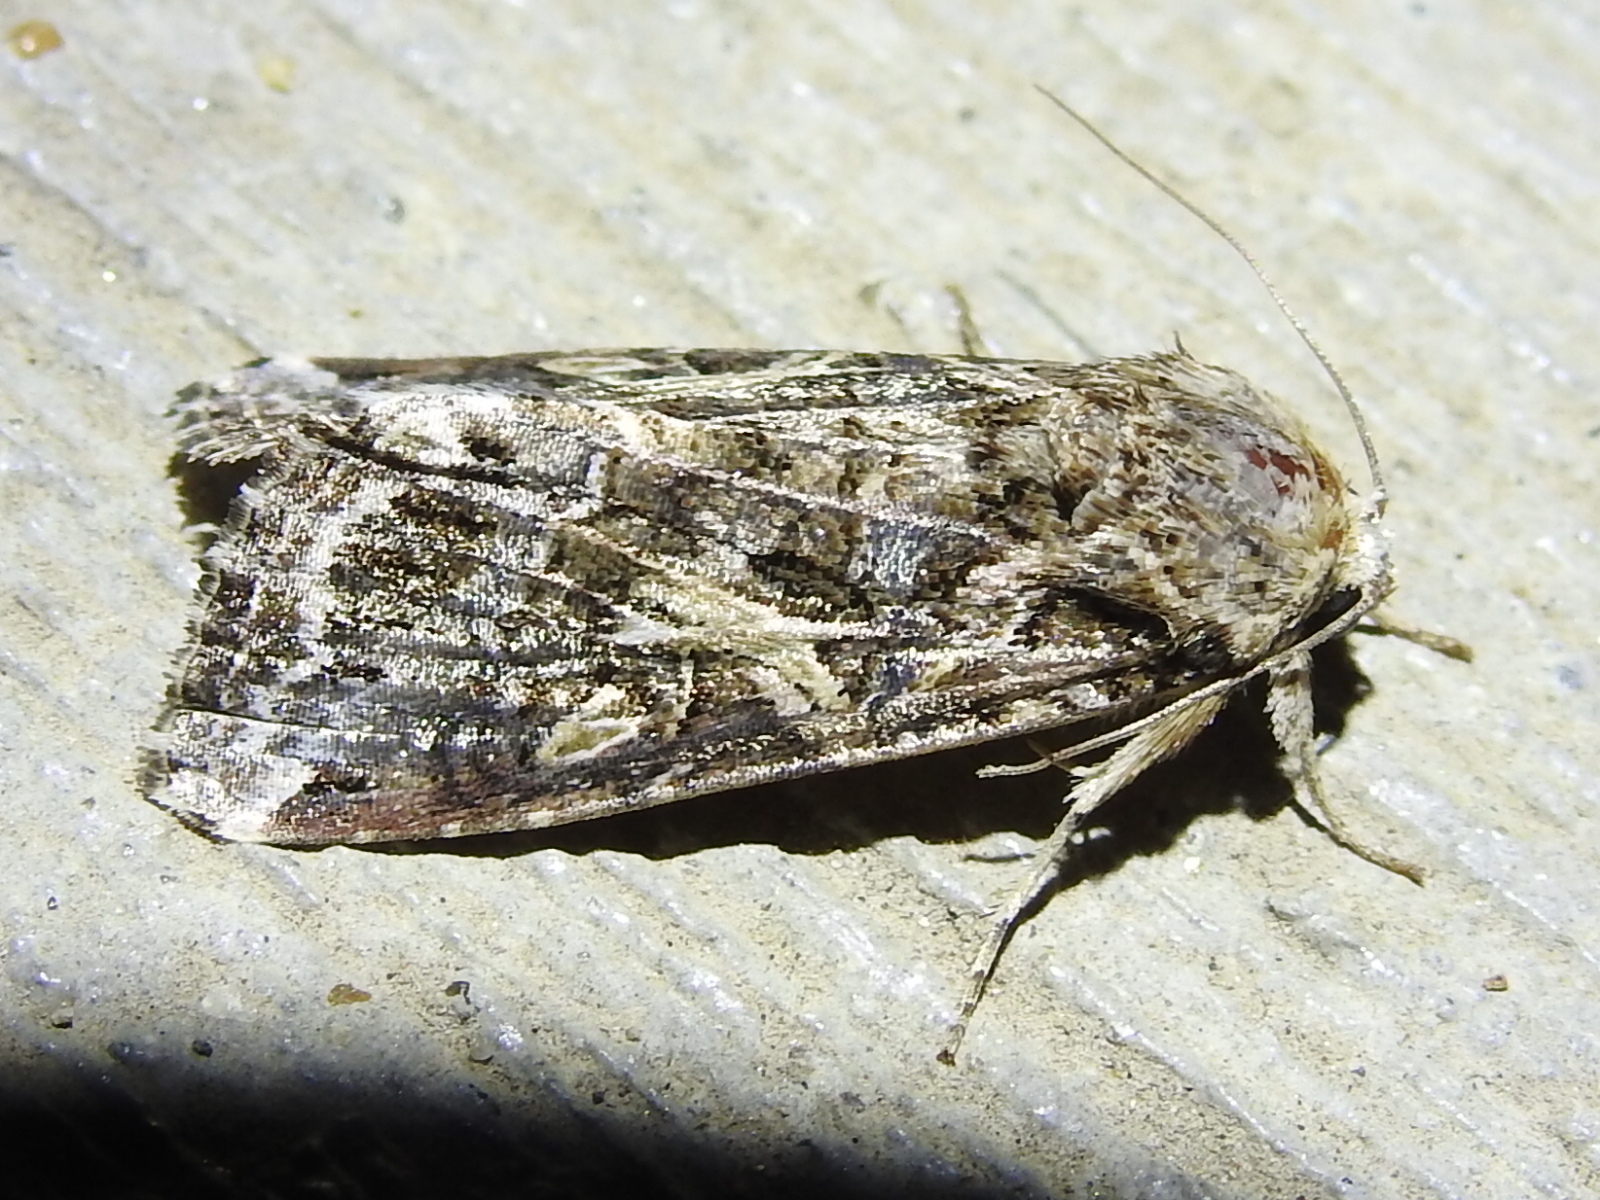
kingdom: Animalia
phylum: Arthropoda
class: Insecta
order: Lepidoptera
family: Noctuidae
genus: Spodoptera
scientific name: Spodoptera ornithogalli
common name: Yellow-striped armyworm
